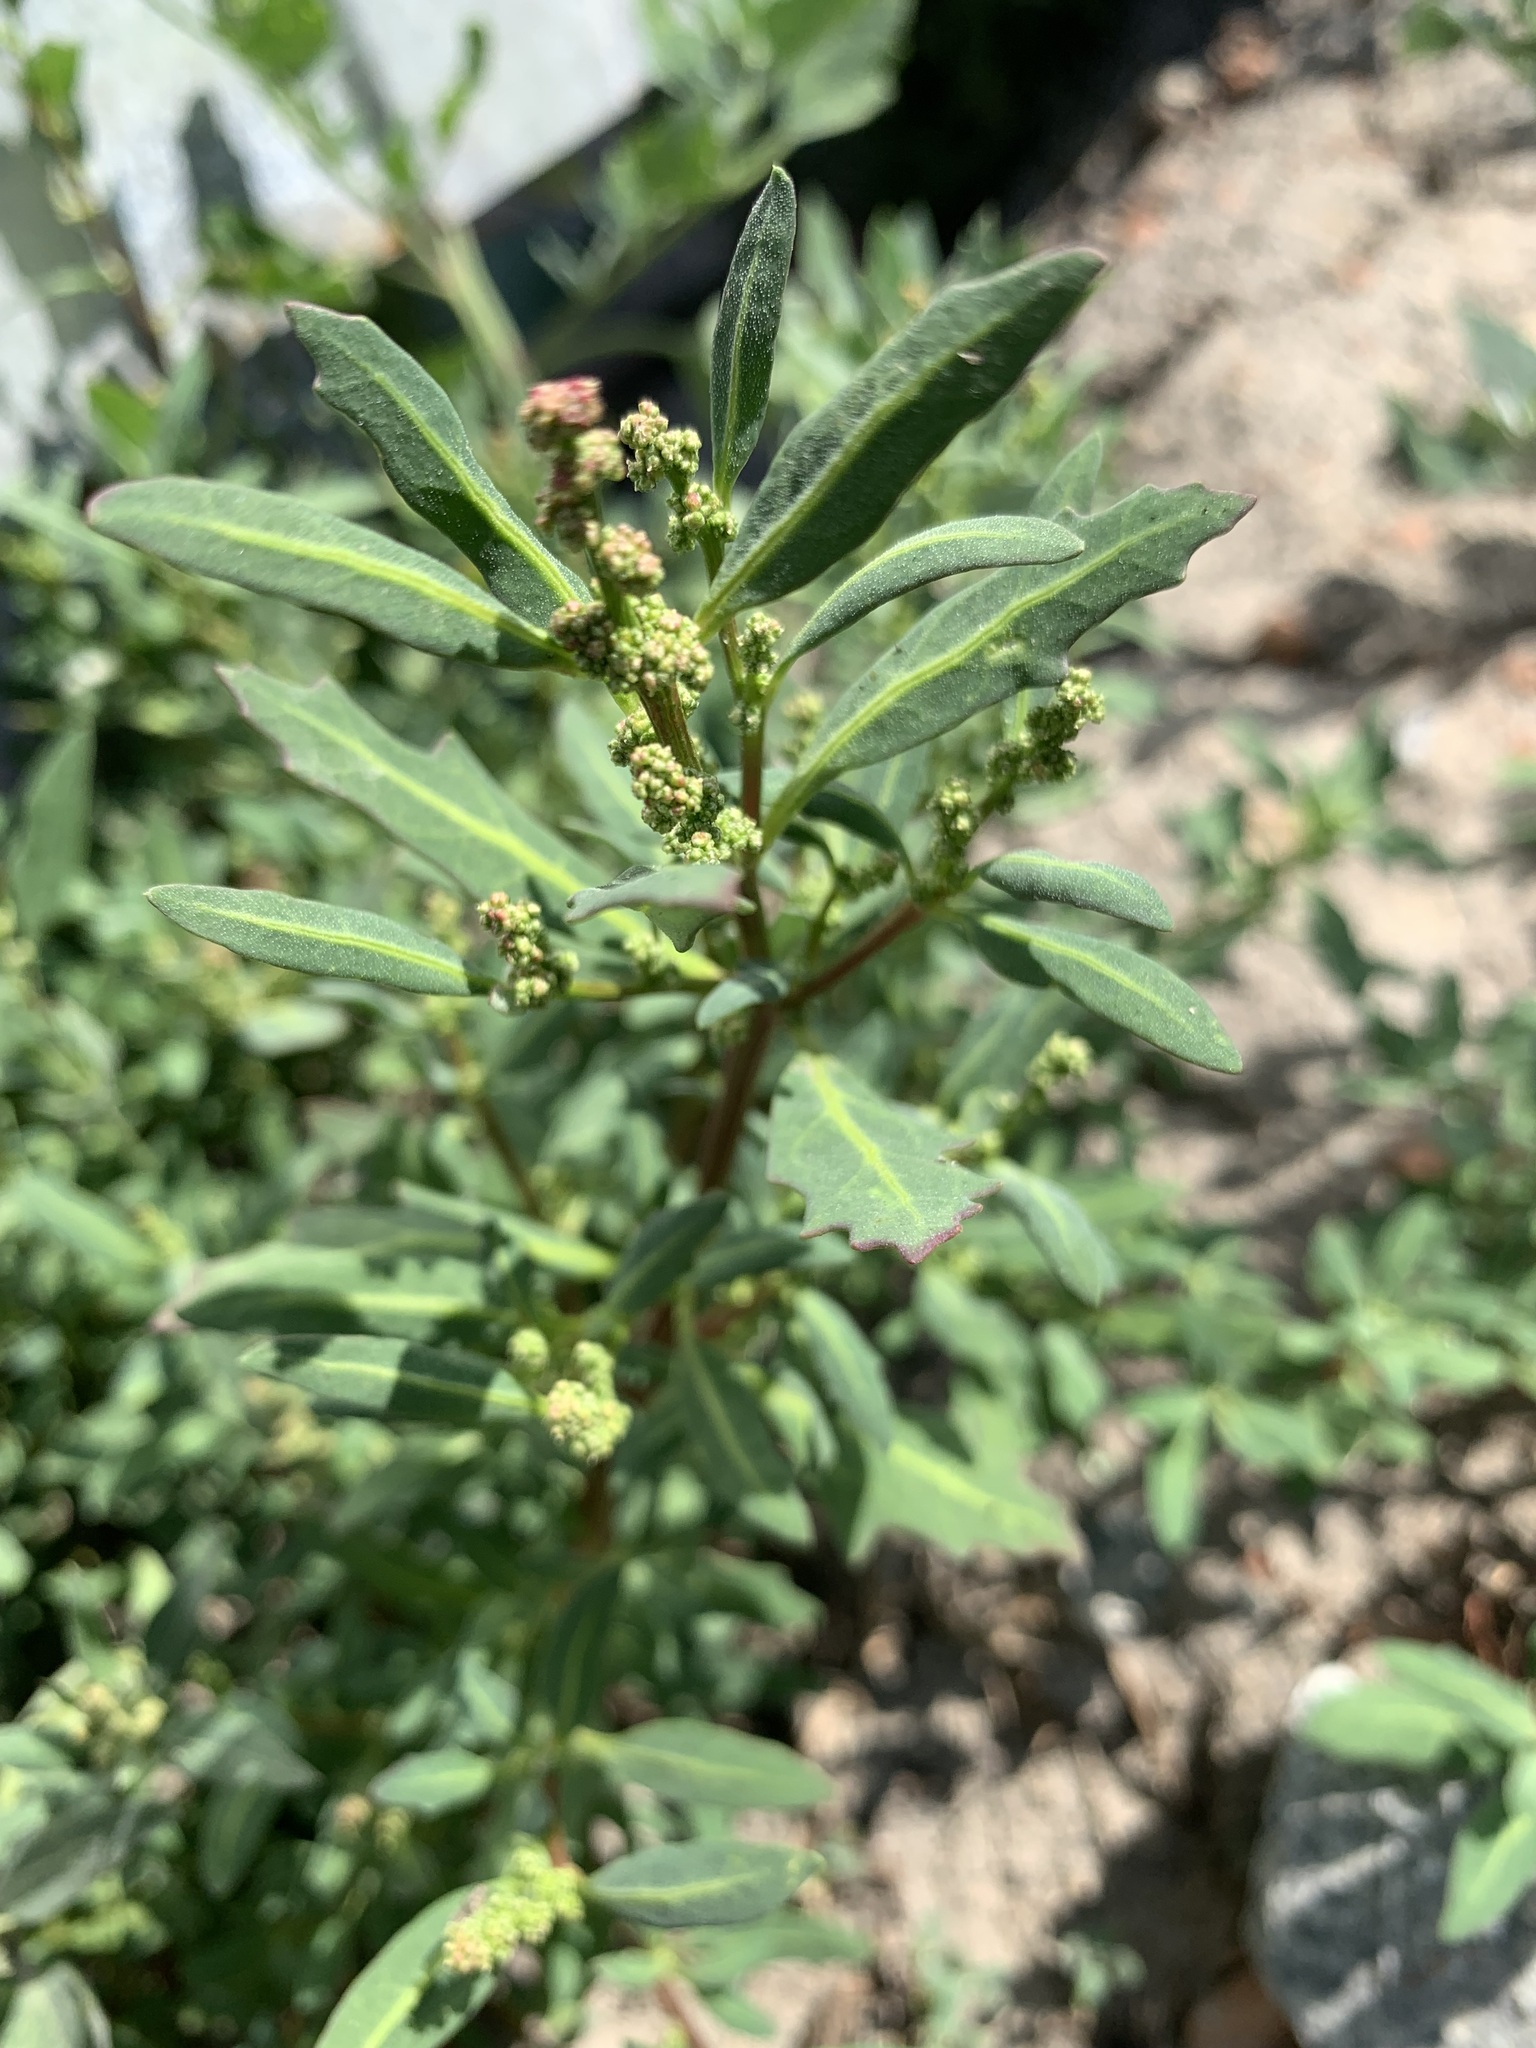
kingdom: Plantae
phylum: Tracheophyta
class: Magnoliopsida
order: Caryophyllales
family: Amaranthaceae
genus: Oxybasis
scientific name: Oxybasis glauca
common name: Glaucous goosefoot
